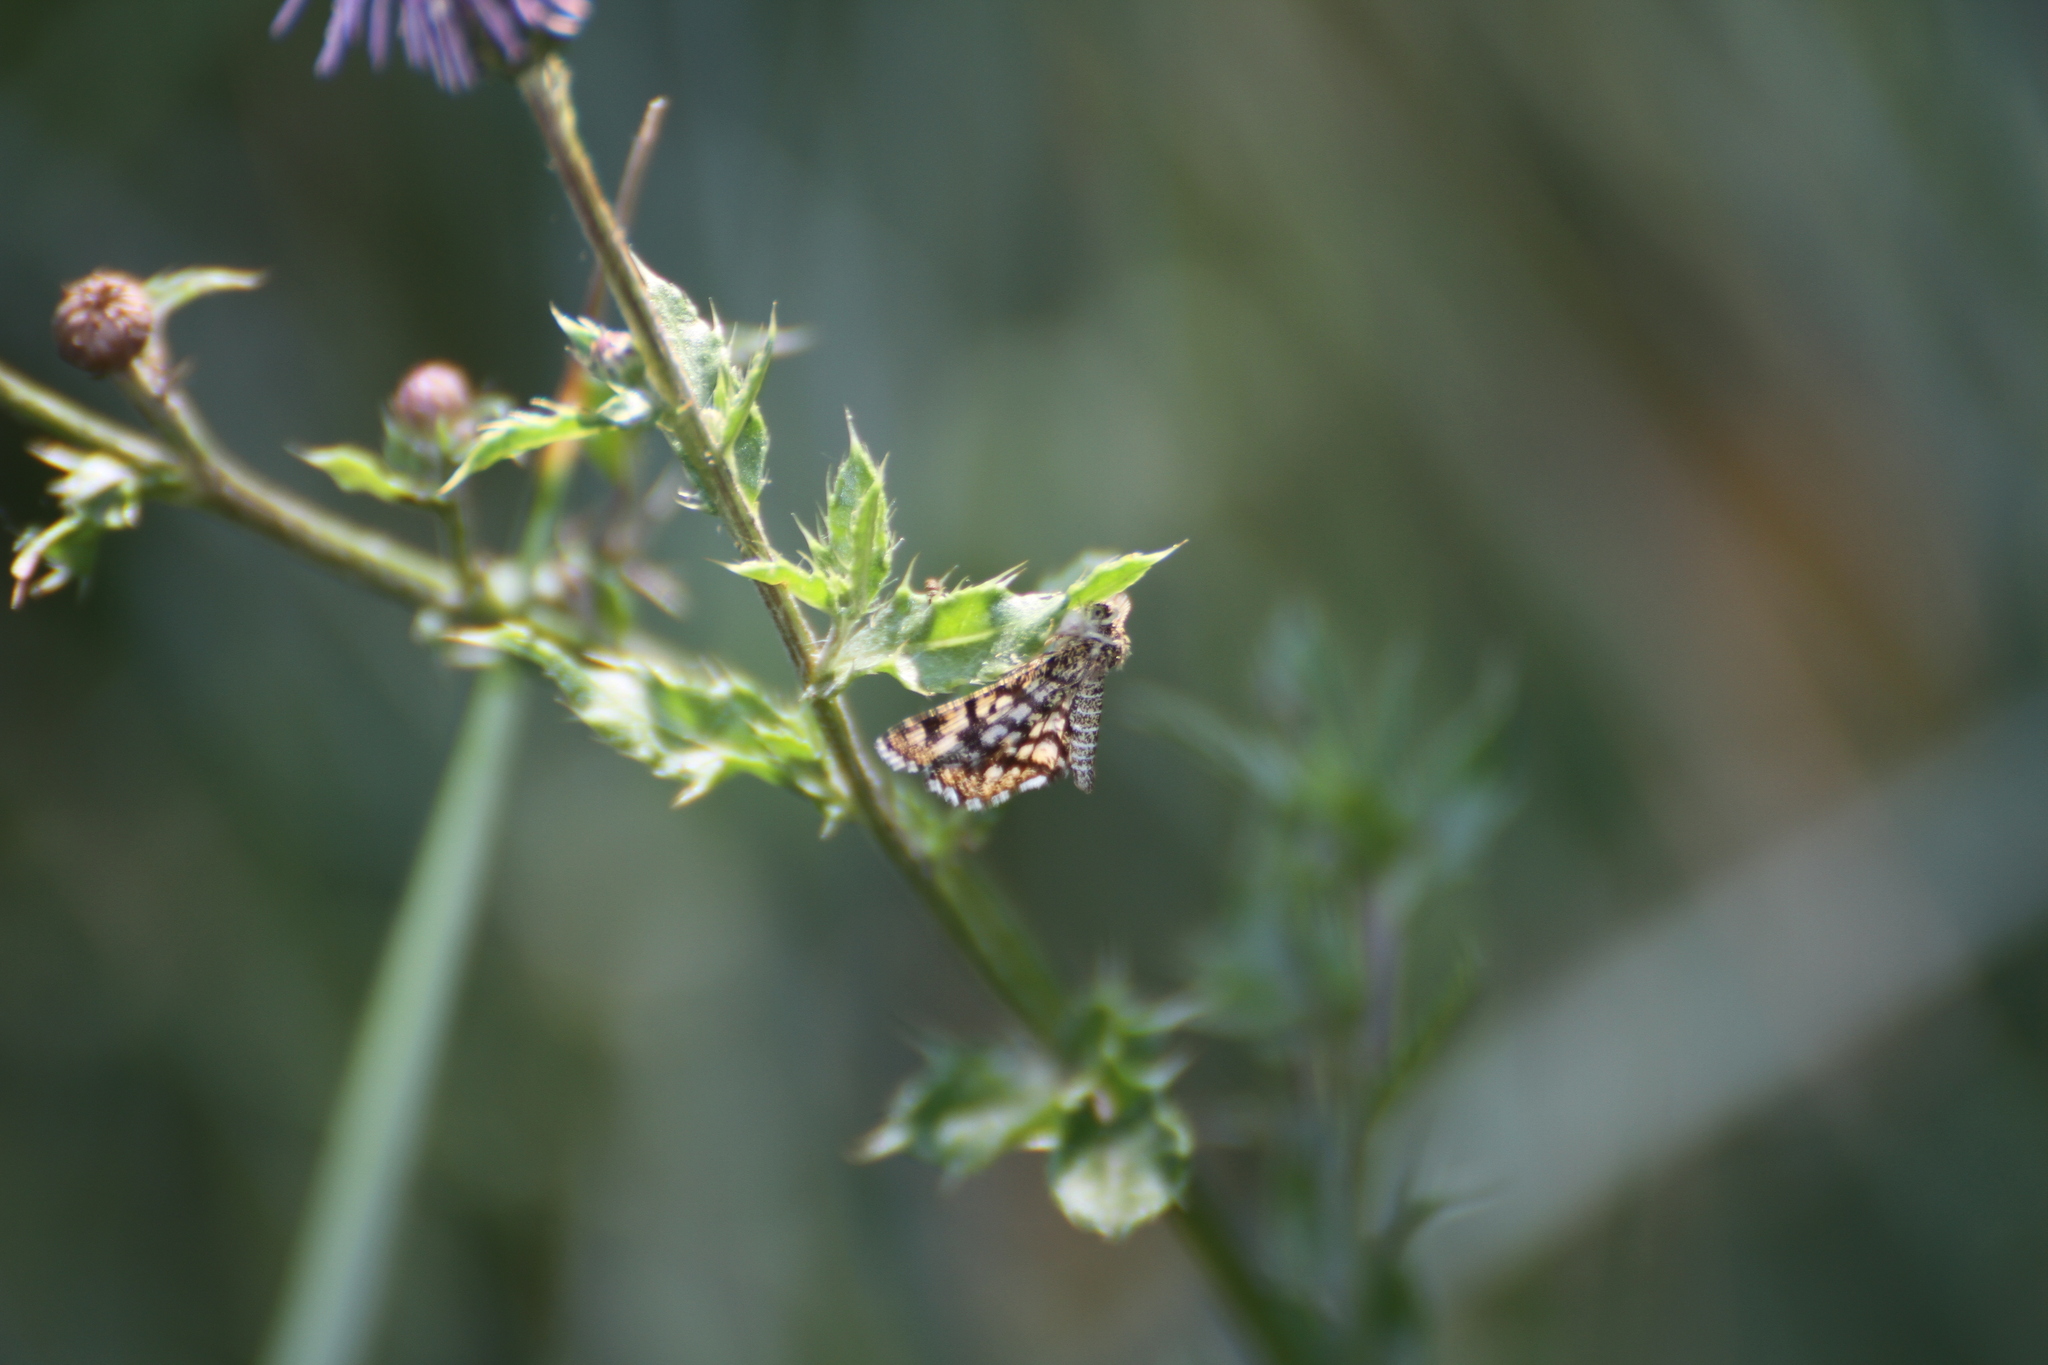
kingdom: Animalia
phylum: Arthropoda
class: Insecta
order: Lepidoptera
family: Geometridae
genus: Chiasmia
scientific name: Chiasmia clathrata
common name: Latticed heath
